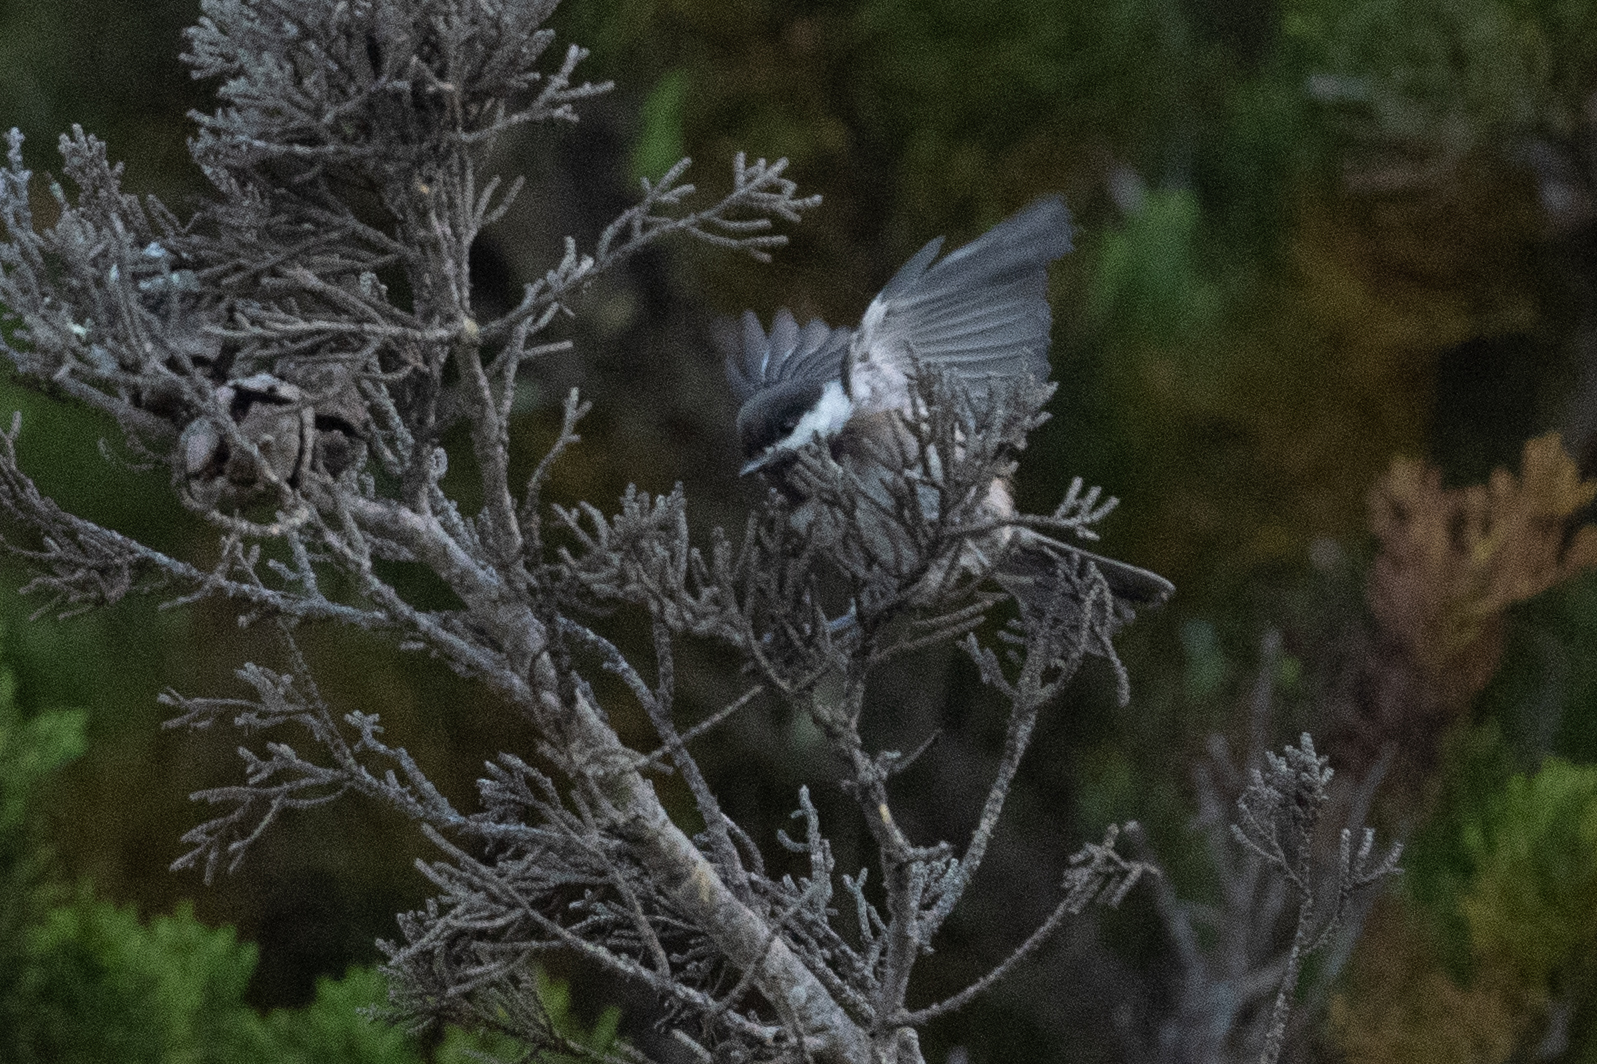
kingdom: Animalia
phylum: Chordata
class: Aves
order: Passeriformes
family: Paridae
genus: Poecile
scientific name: Poecile rufescens
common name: Chestnut-backed chickadee
